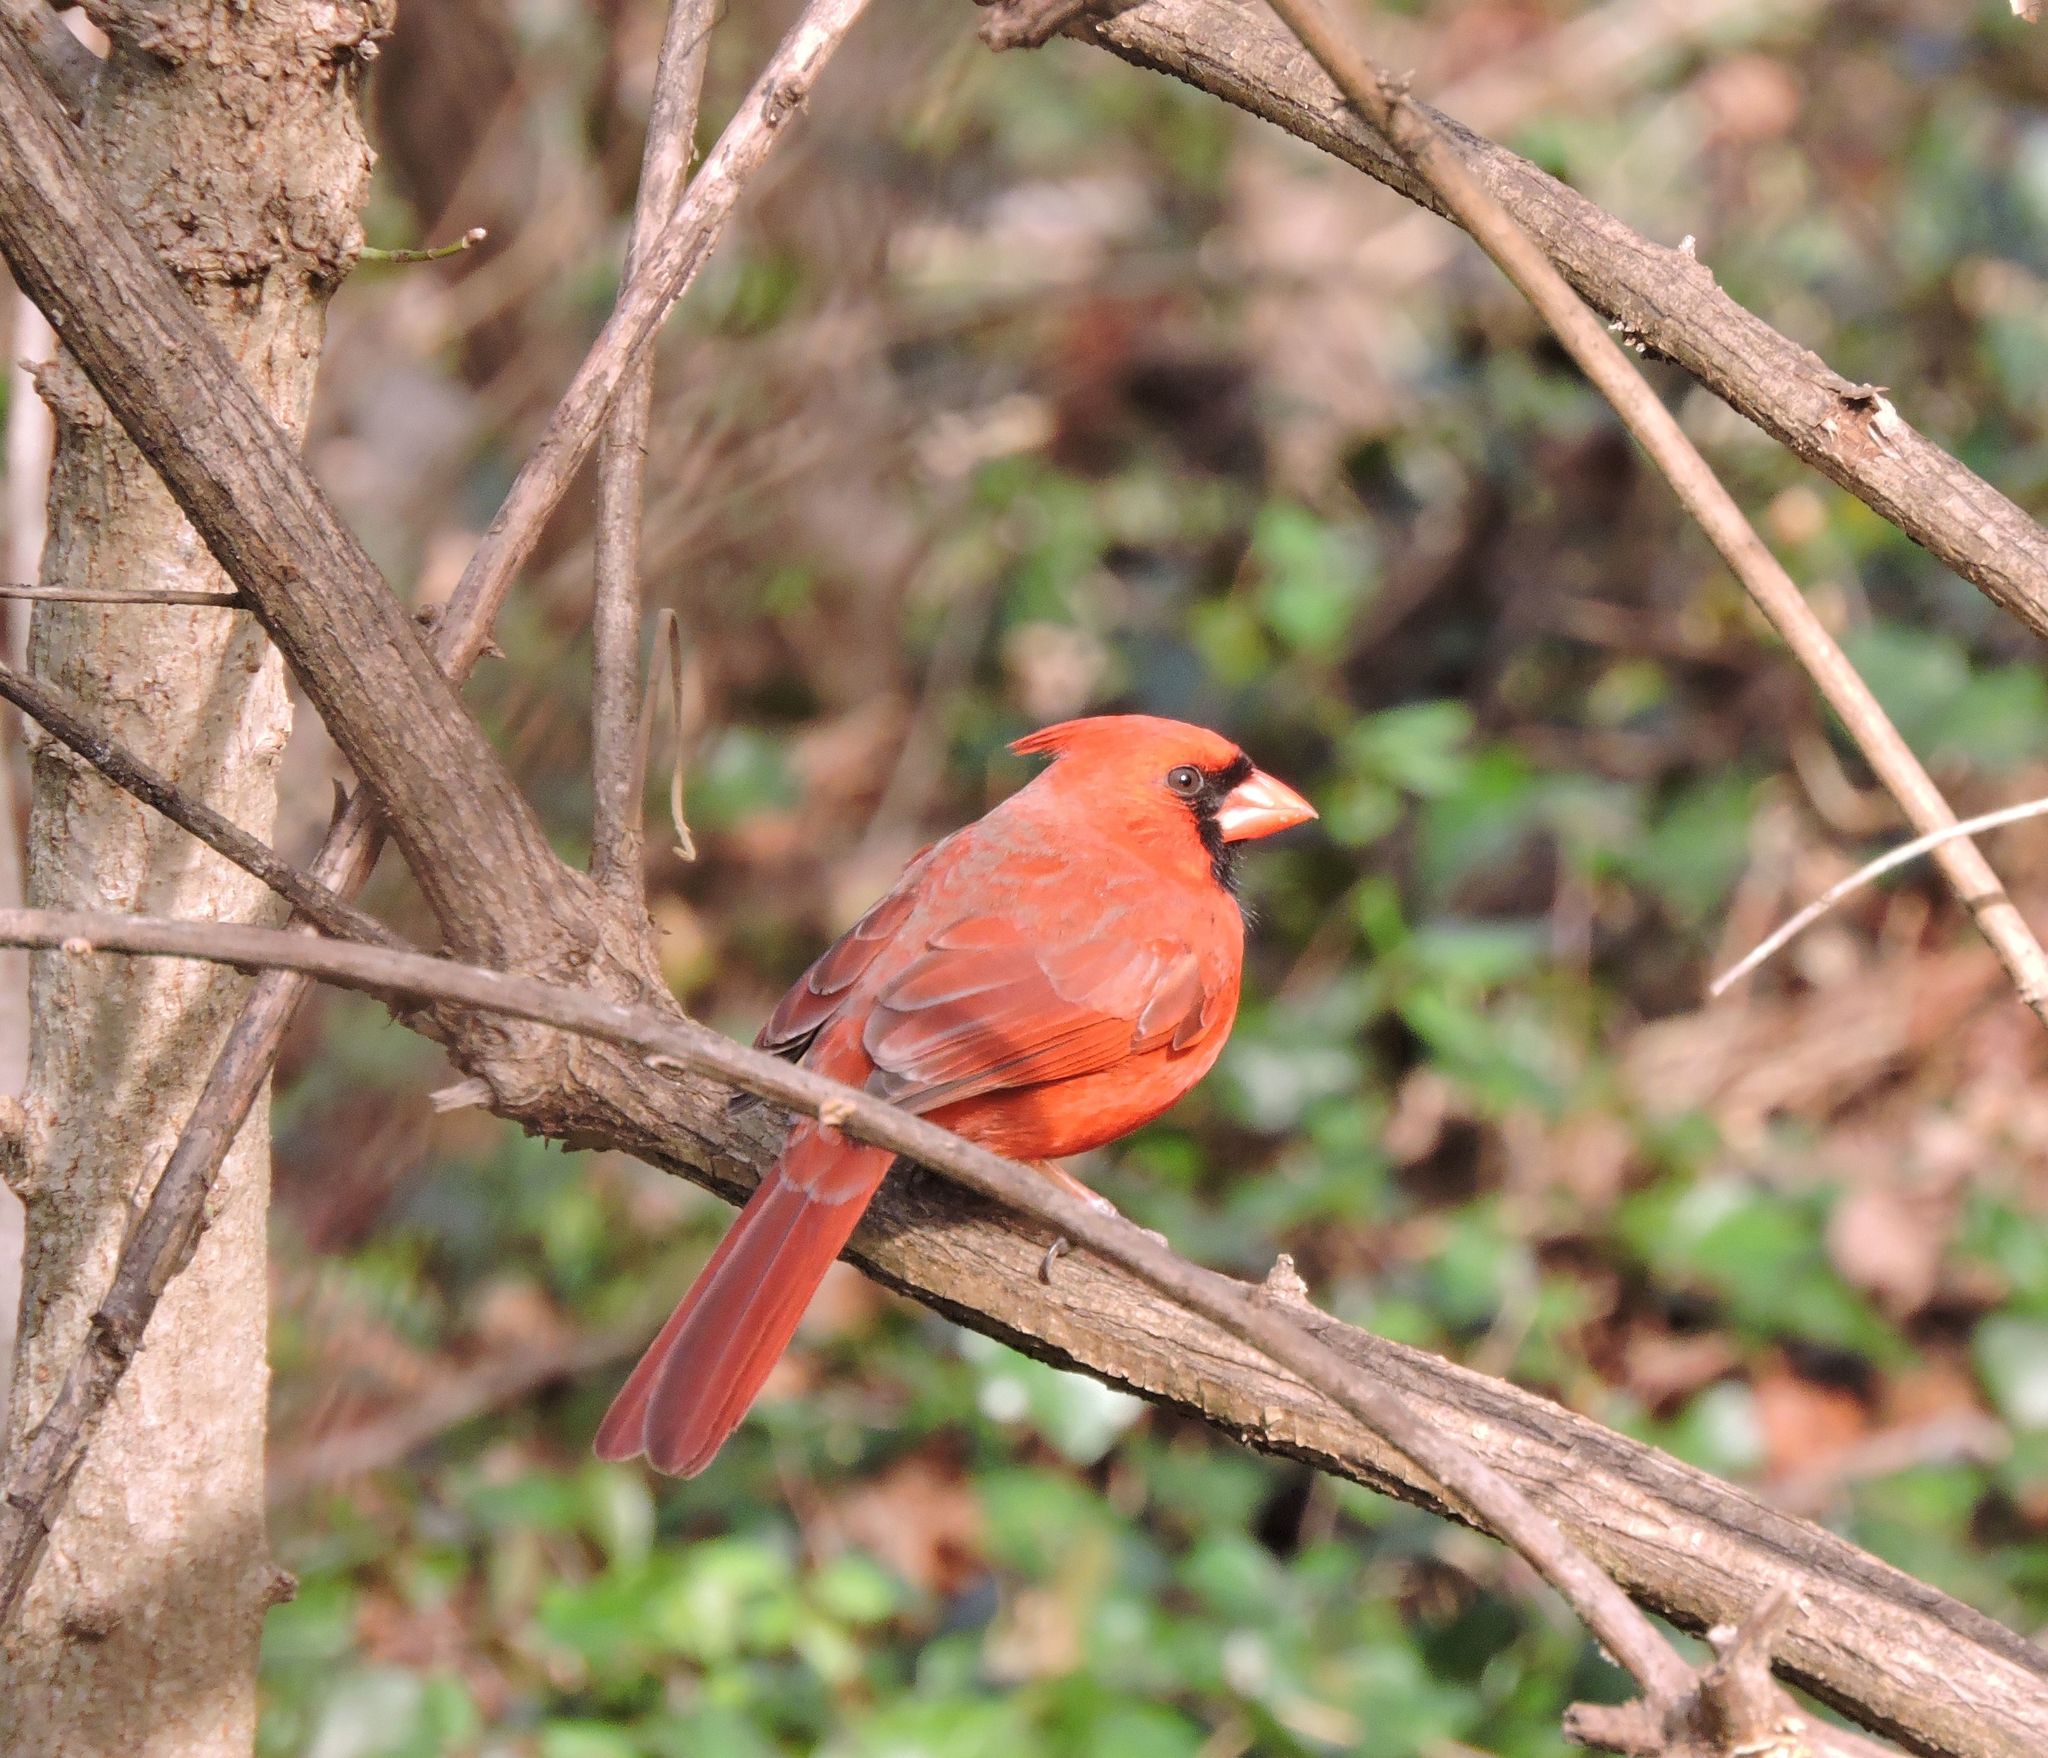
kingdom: Animalia
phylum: Chordata
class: Aves
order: Passeriformes
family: Cardinalidae
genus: Cardinalis
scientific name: Cardinalis cardinalis
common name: Northern cardinal
